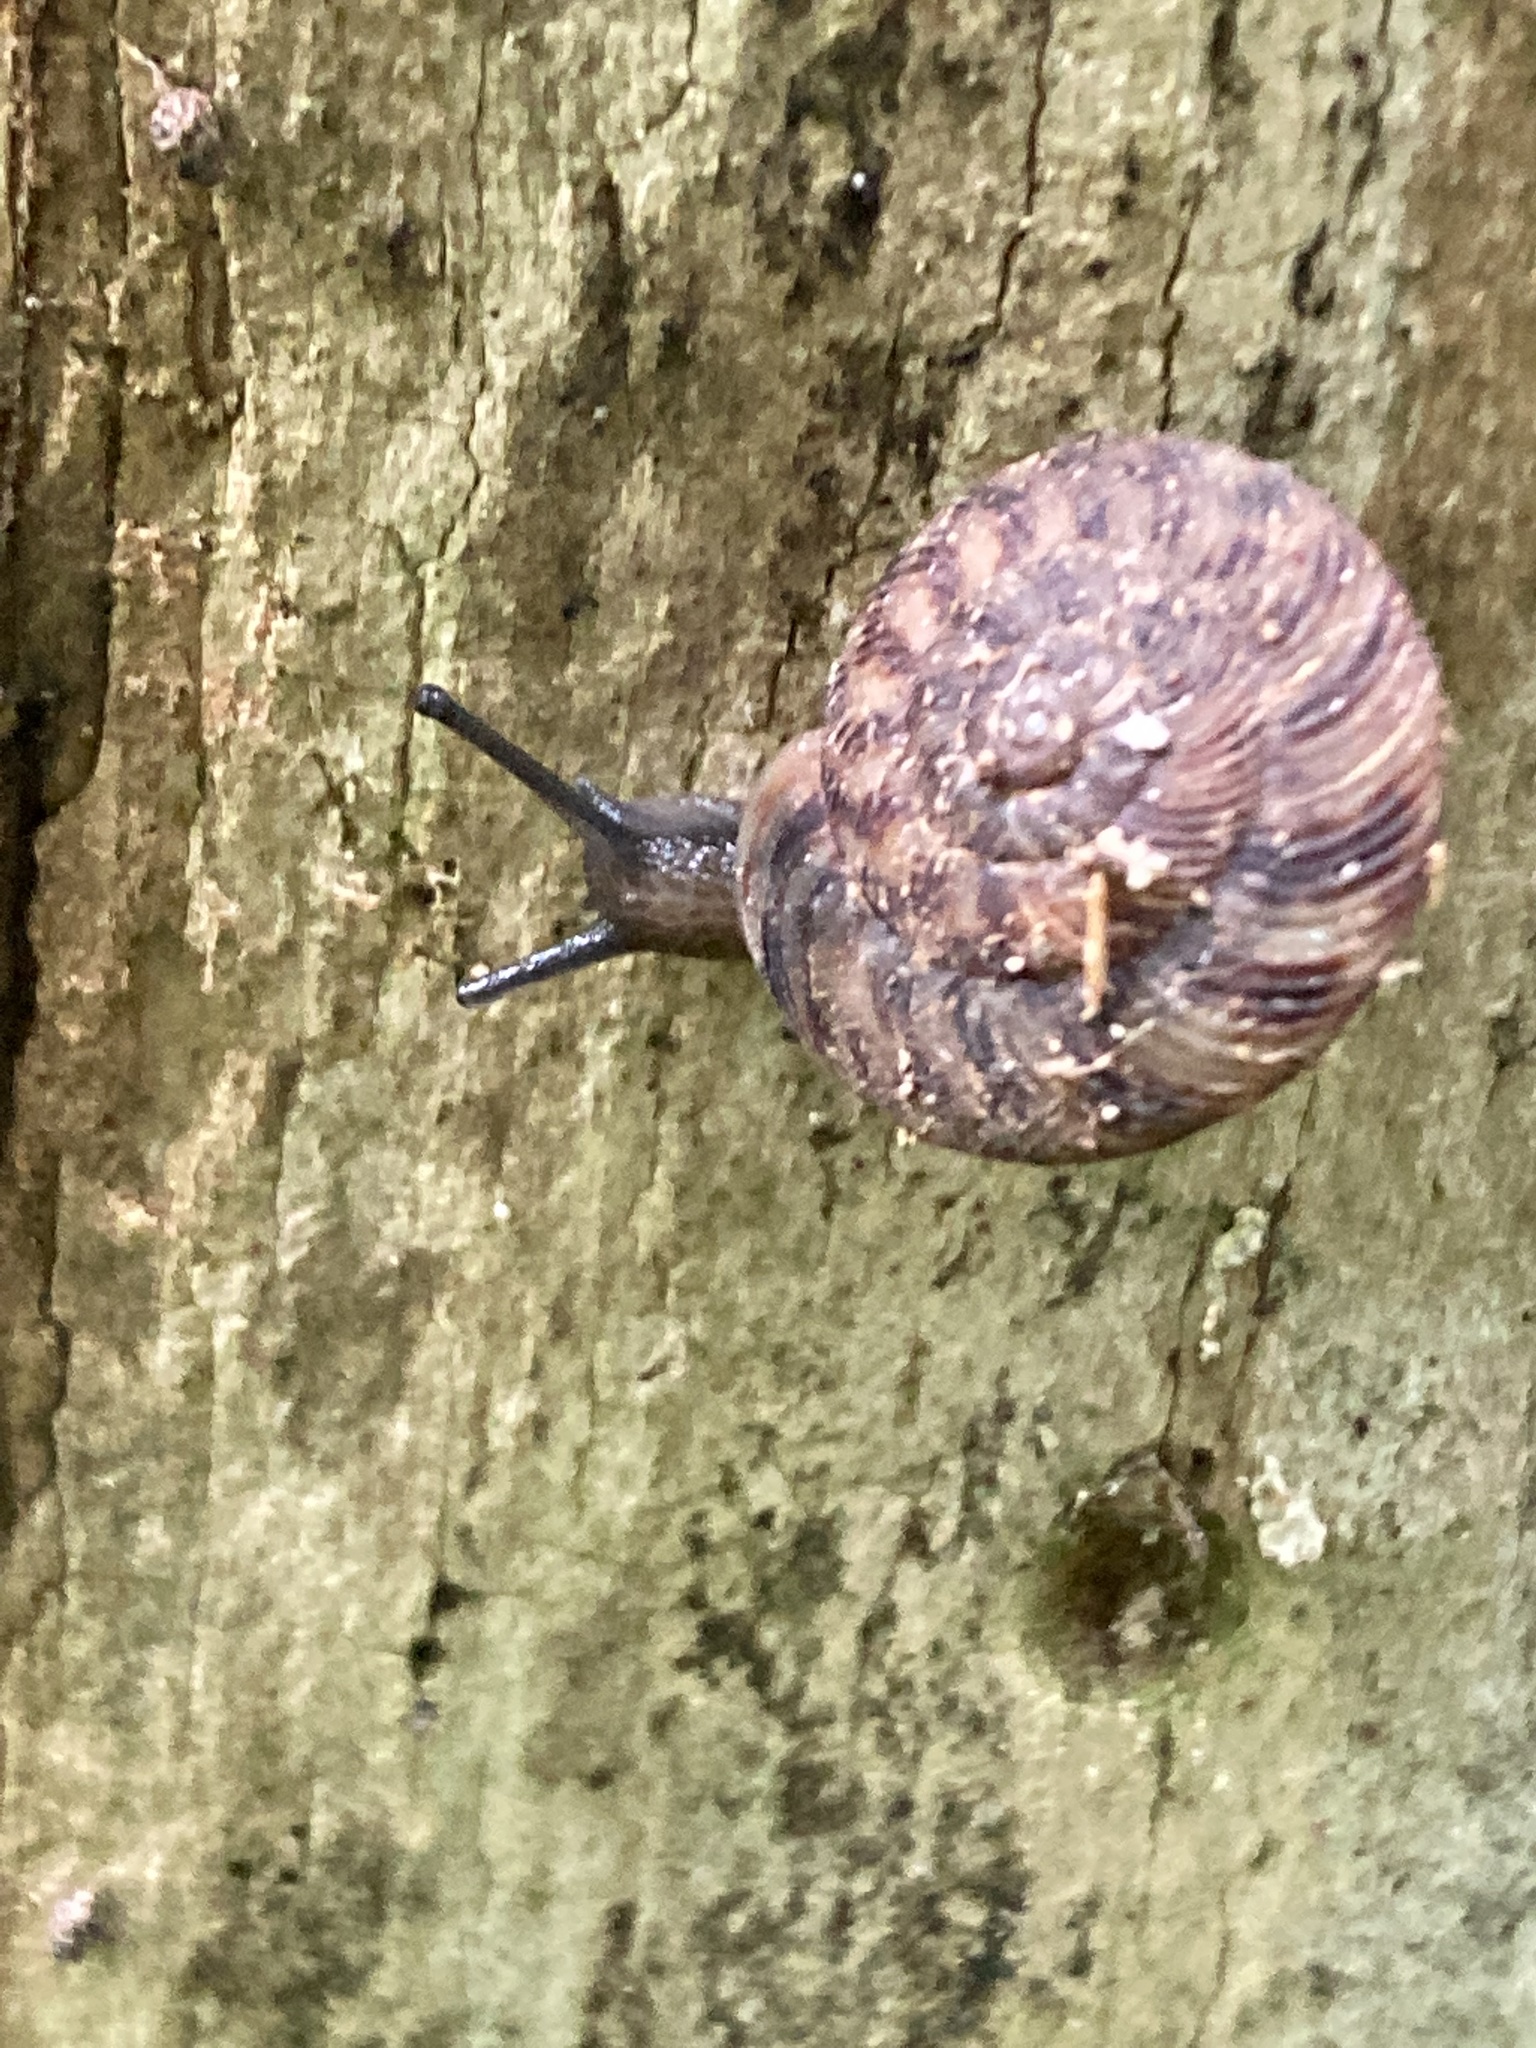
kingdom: Animalia
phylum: Mollusca
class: Gastropoda
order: Stylommatophora
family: Discidae
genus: Anguispira
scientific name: Anguispira alternata
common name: Flamed tigersnail
